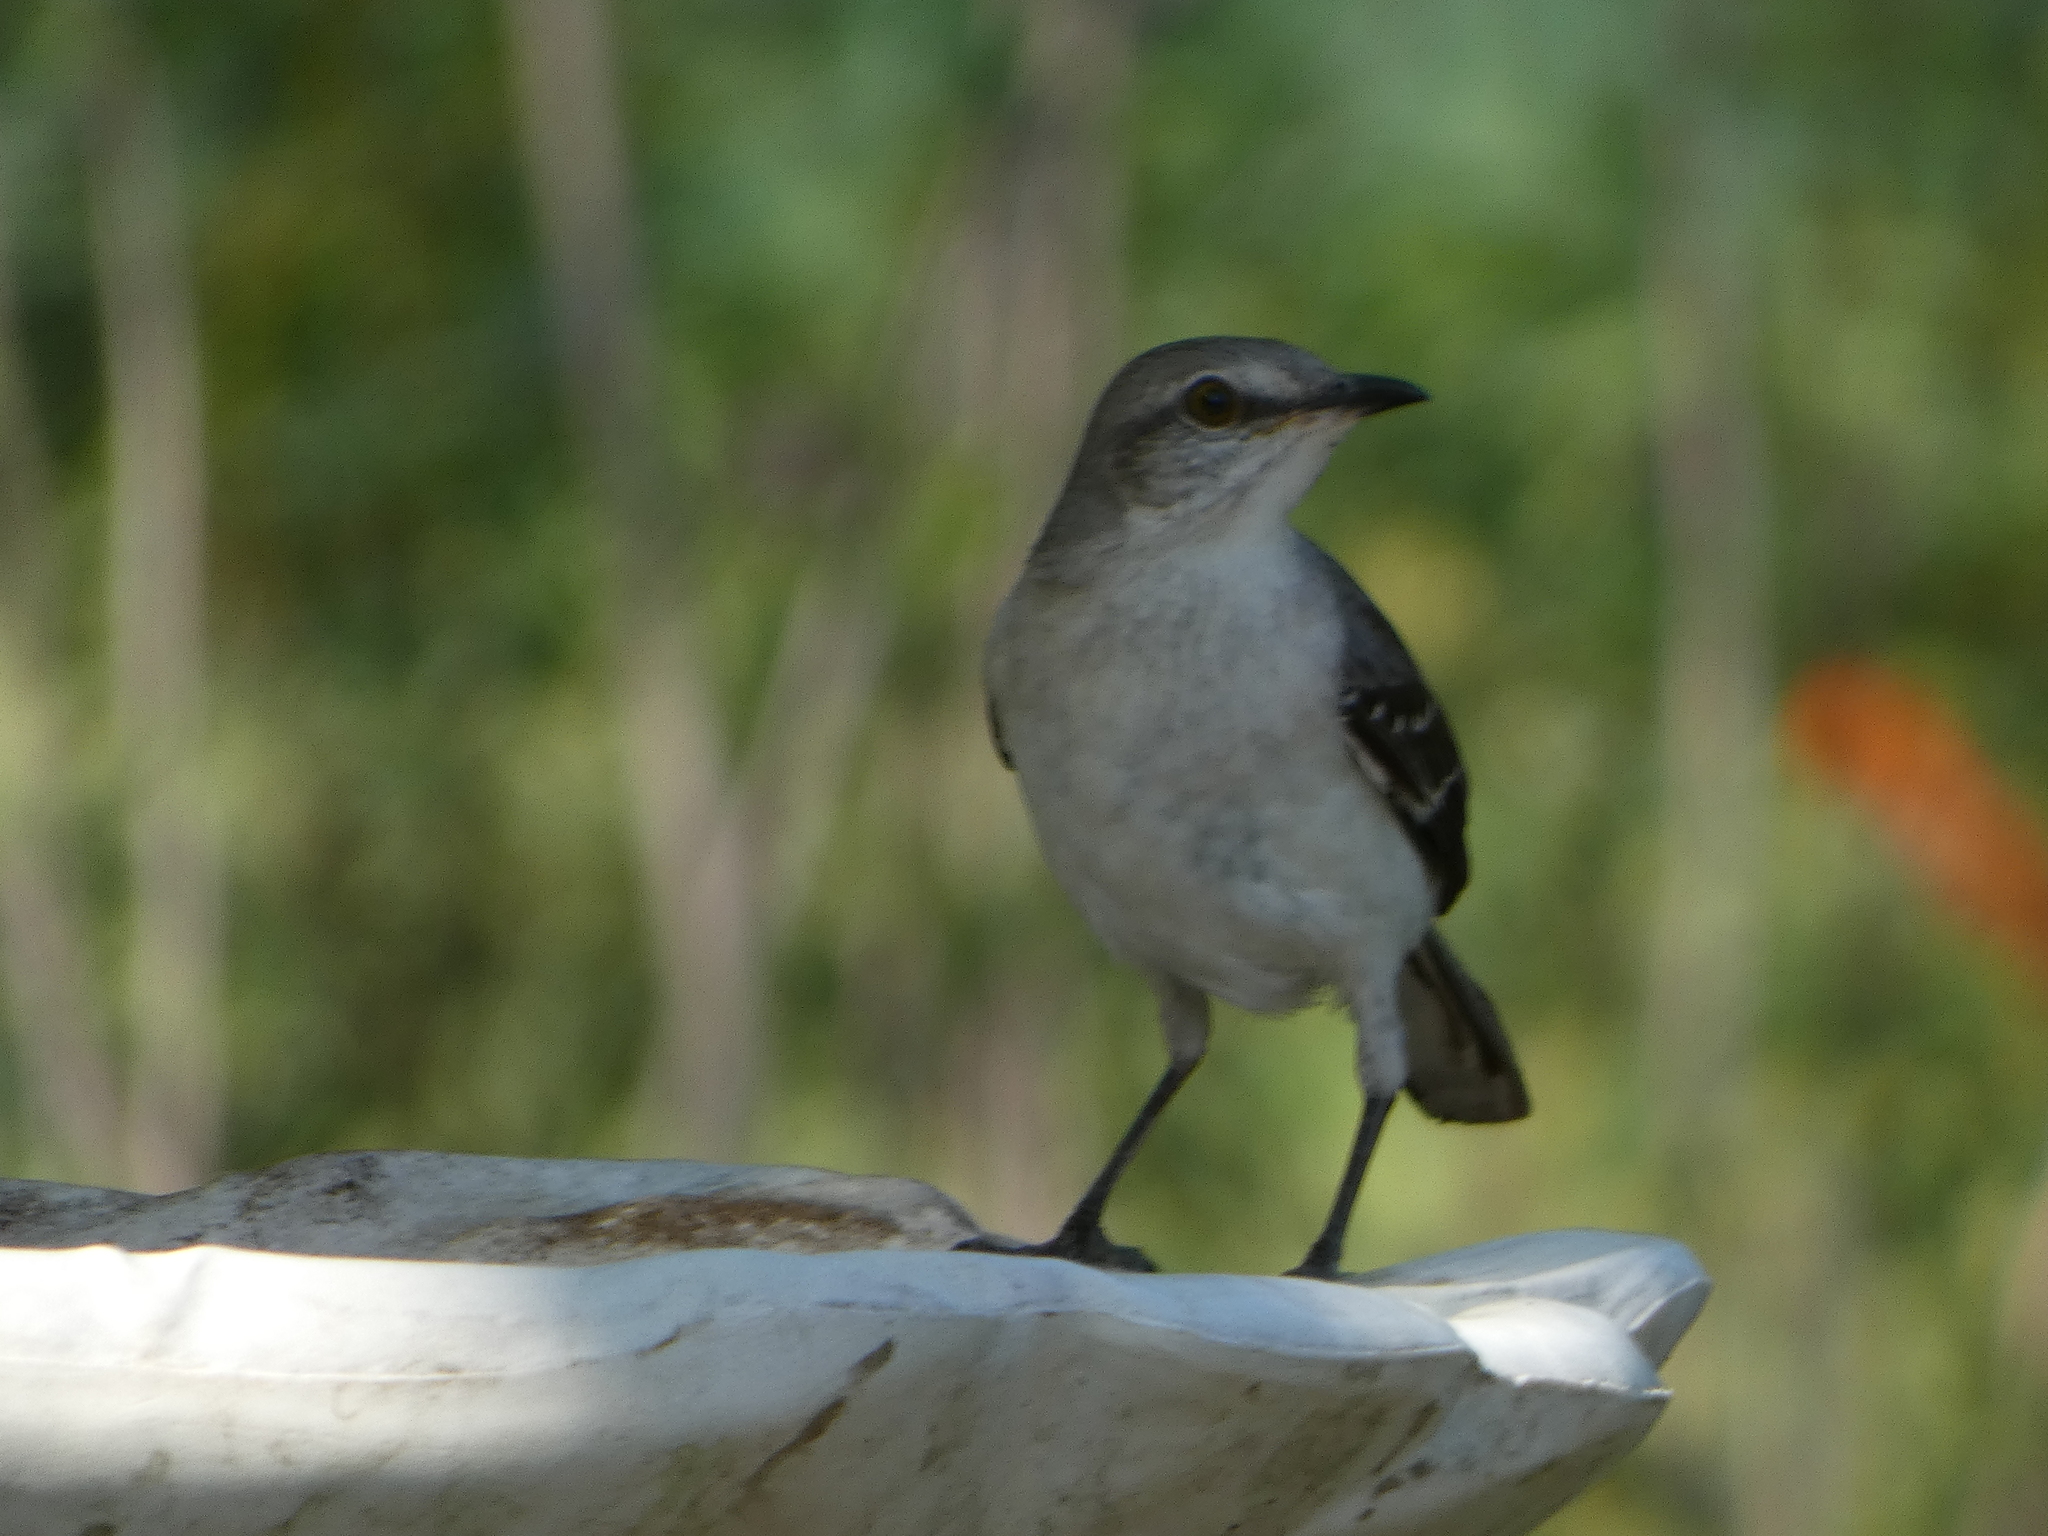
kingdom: Animalia
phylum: Chordata
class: Aves
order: Passeriformes
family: Mimidae
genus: Mimus
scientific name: Mimus polyglottos
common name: Northern mockingbird
